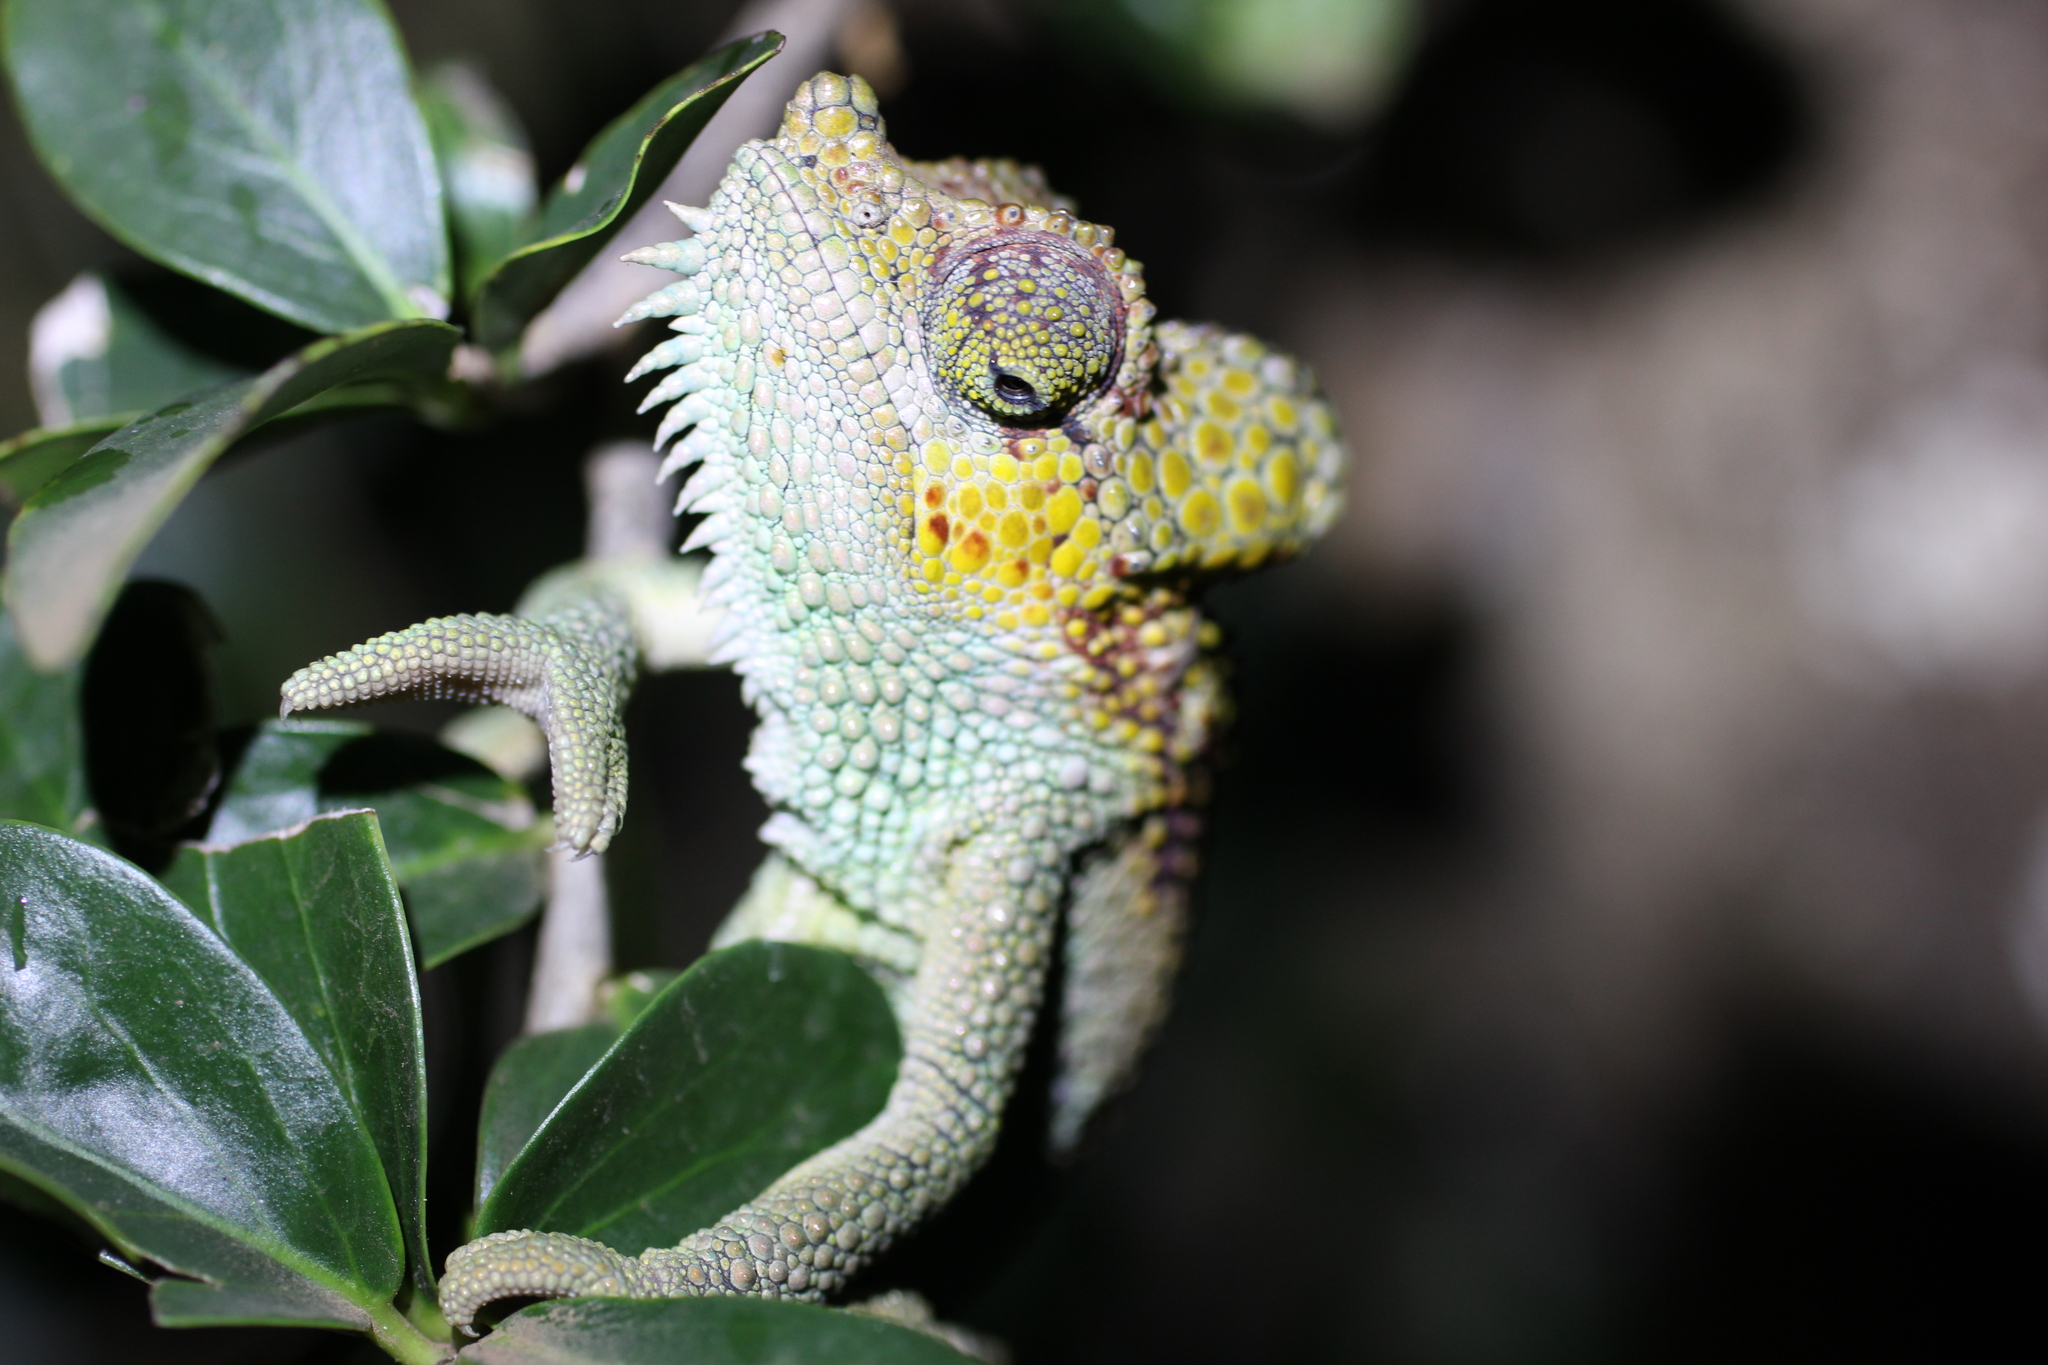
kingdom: Animalia
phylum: Chordata
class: Squamata
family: Chamaeleonidae
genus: Trioceros
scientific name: Trioceros hoehnelii
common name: High-casqued chameleon
